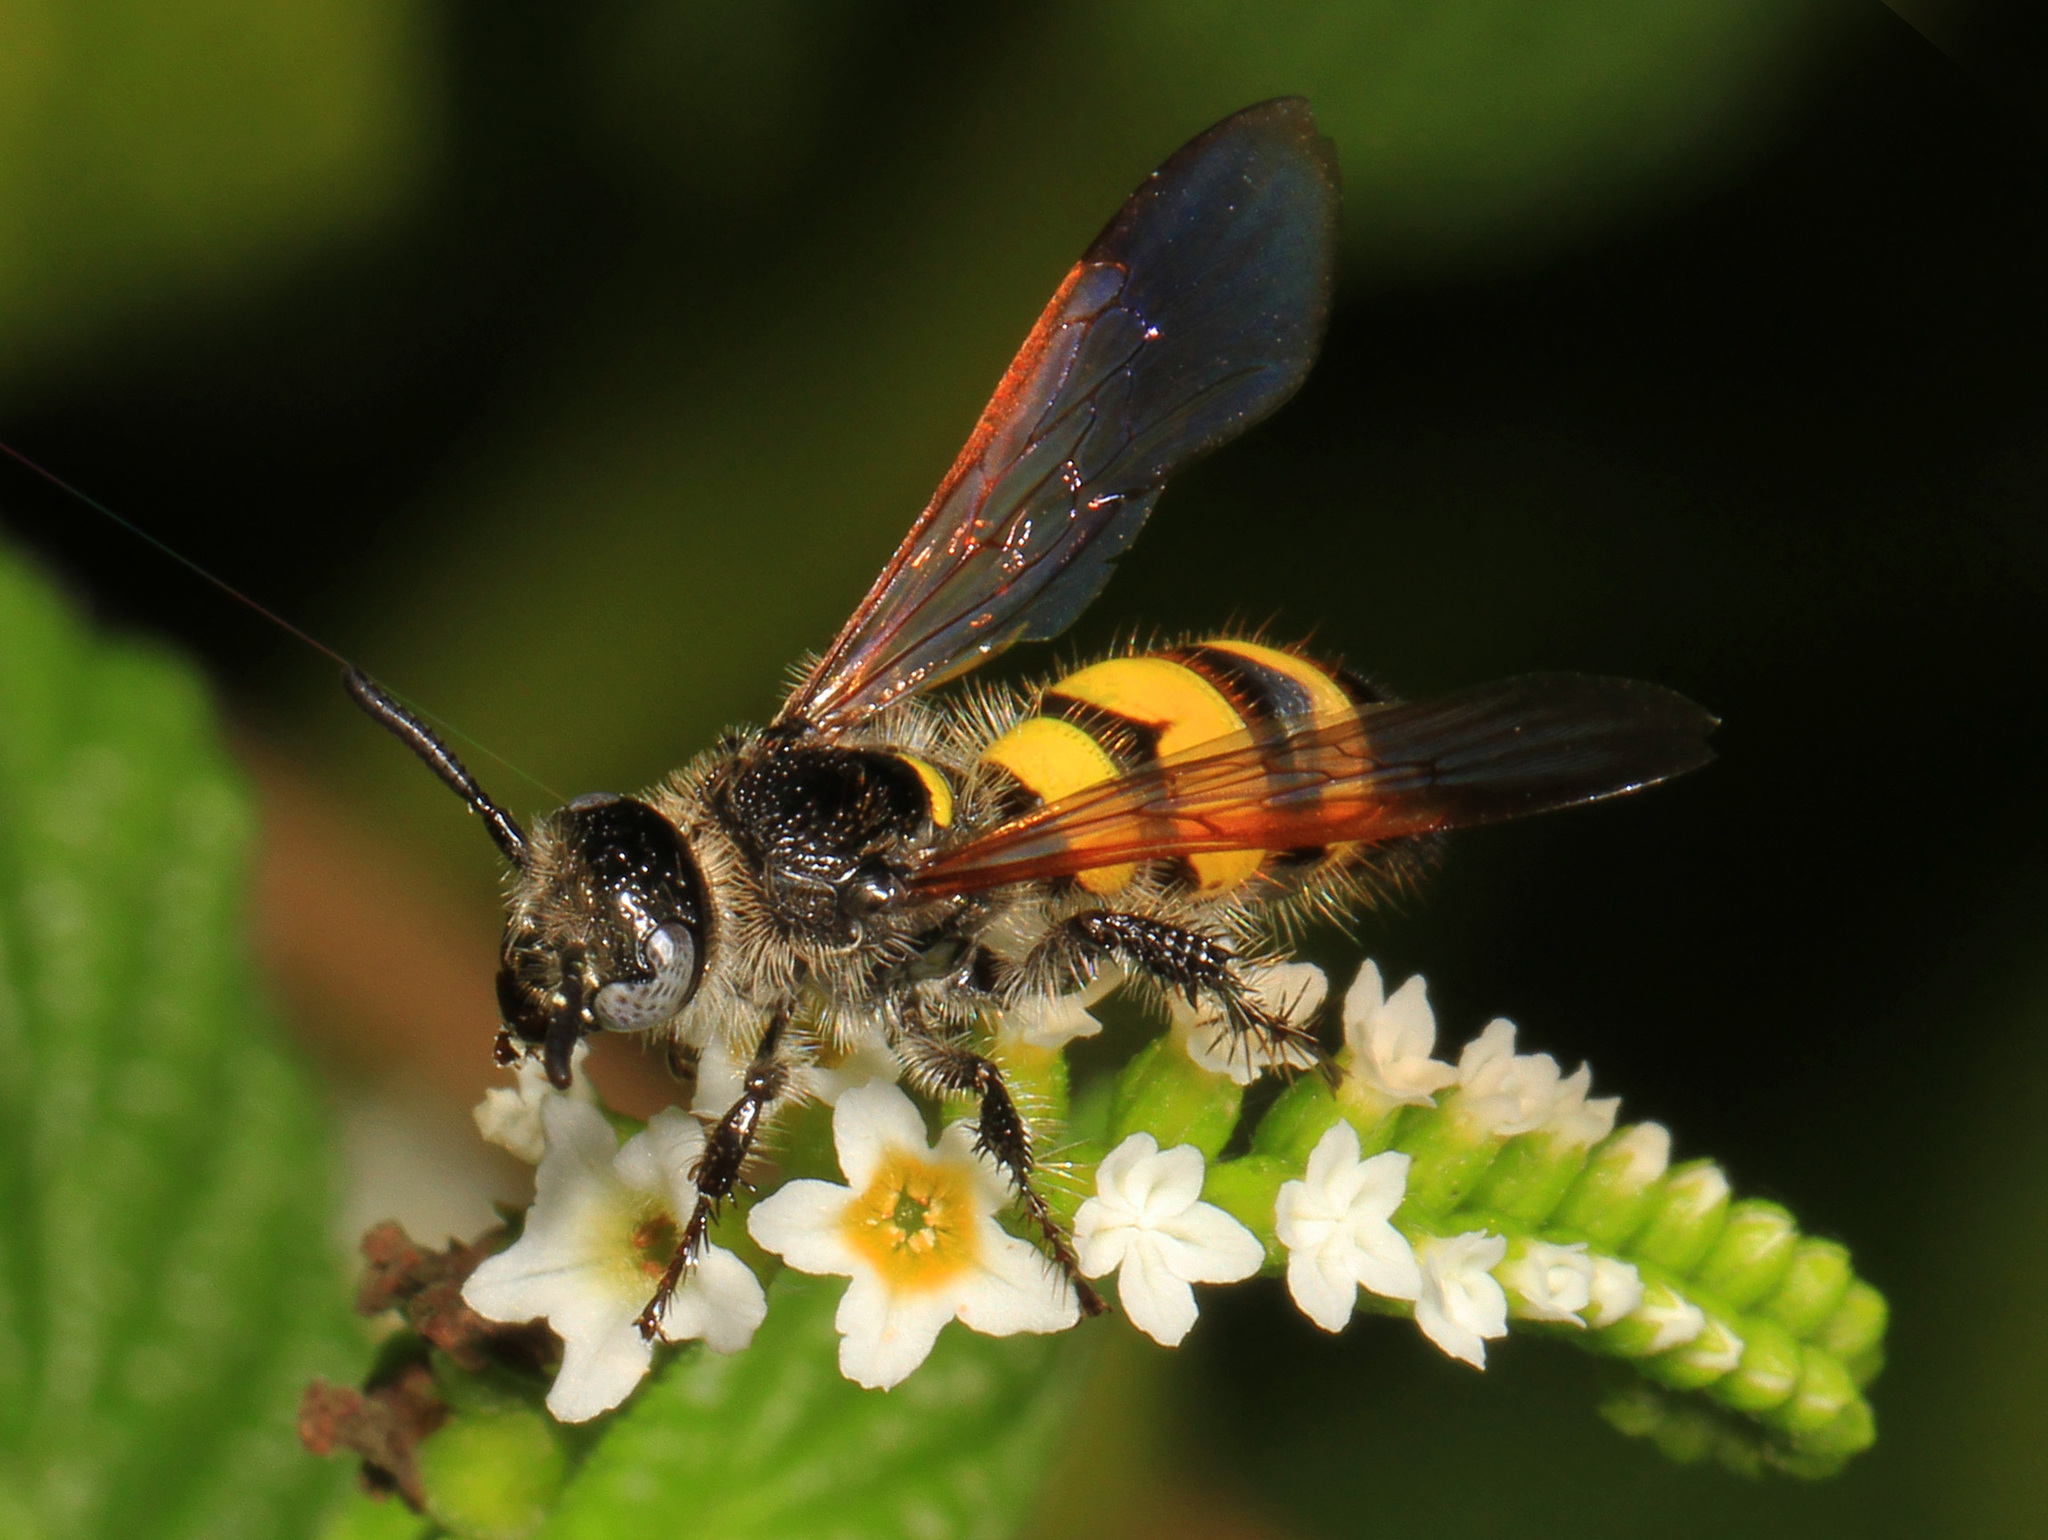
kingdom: Animalia
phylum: Arthropoda
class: Insecta
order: Hymenoptera
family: Scoliidae
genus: Dielis
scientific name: Dielis
